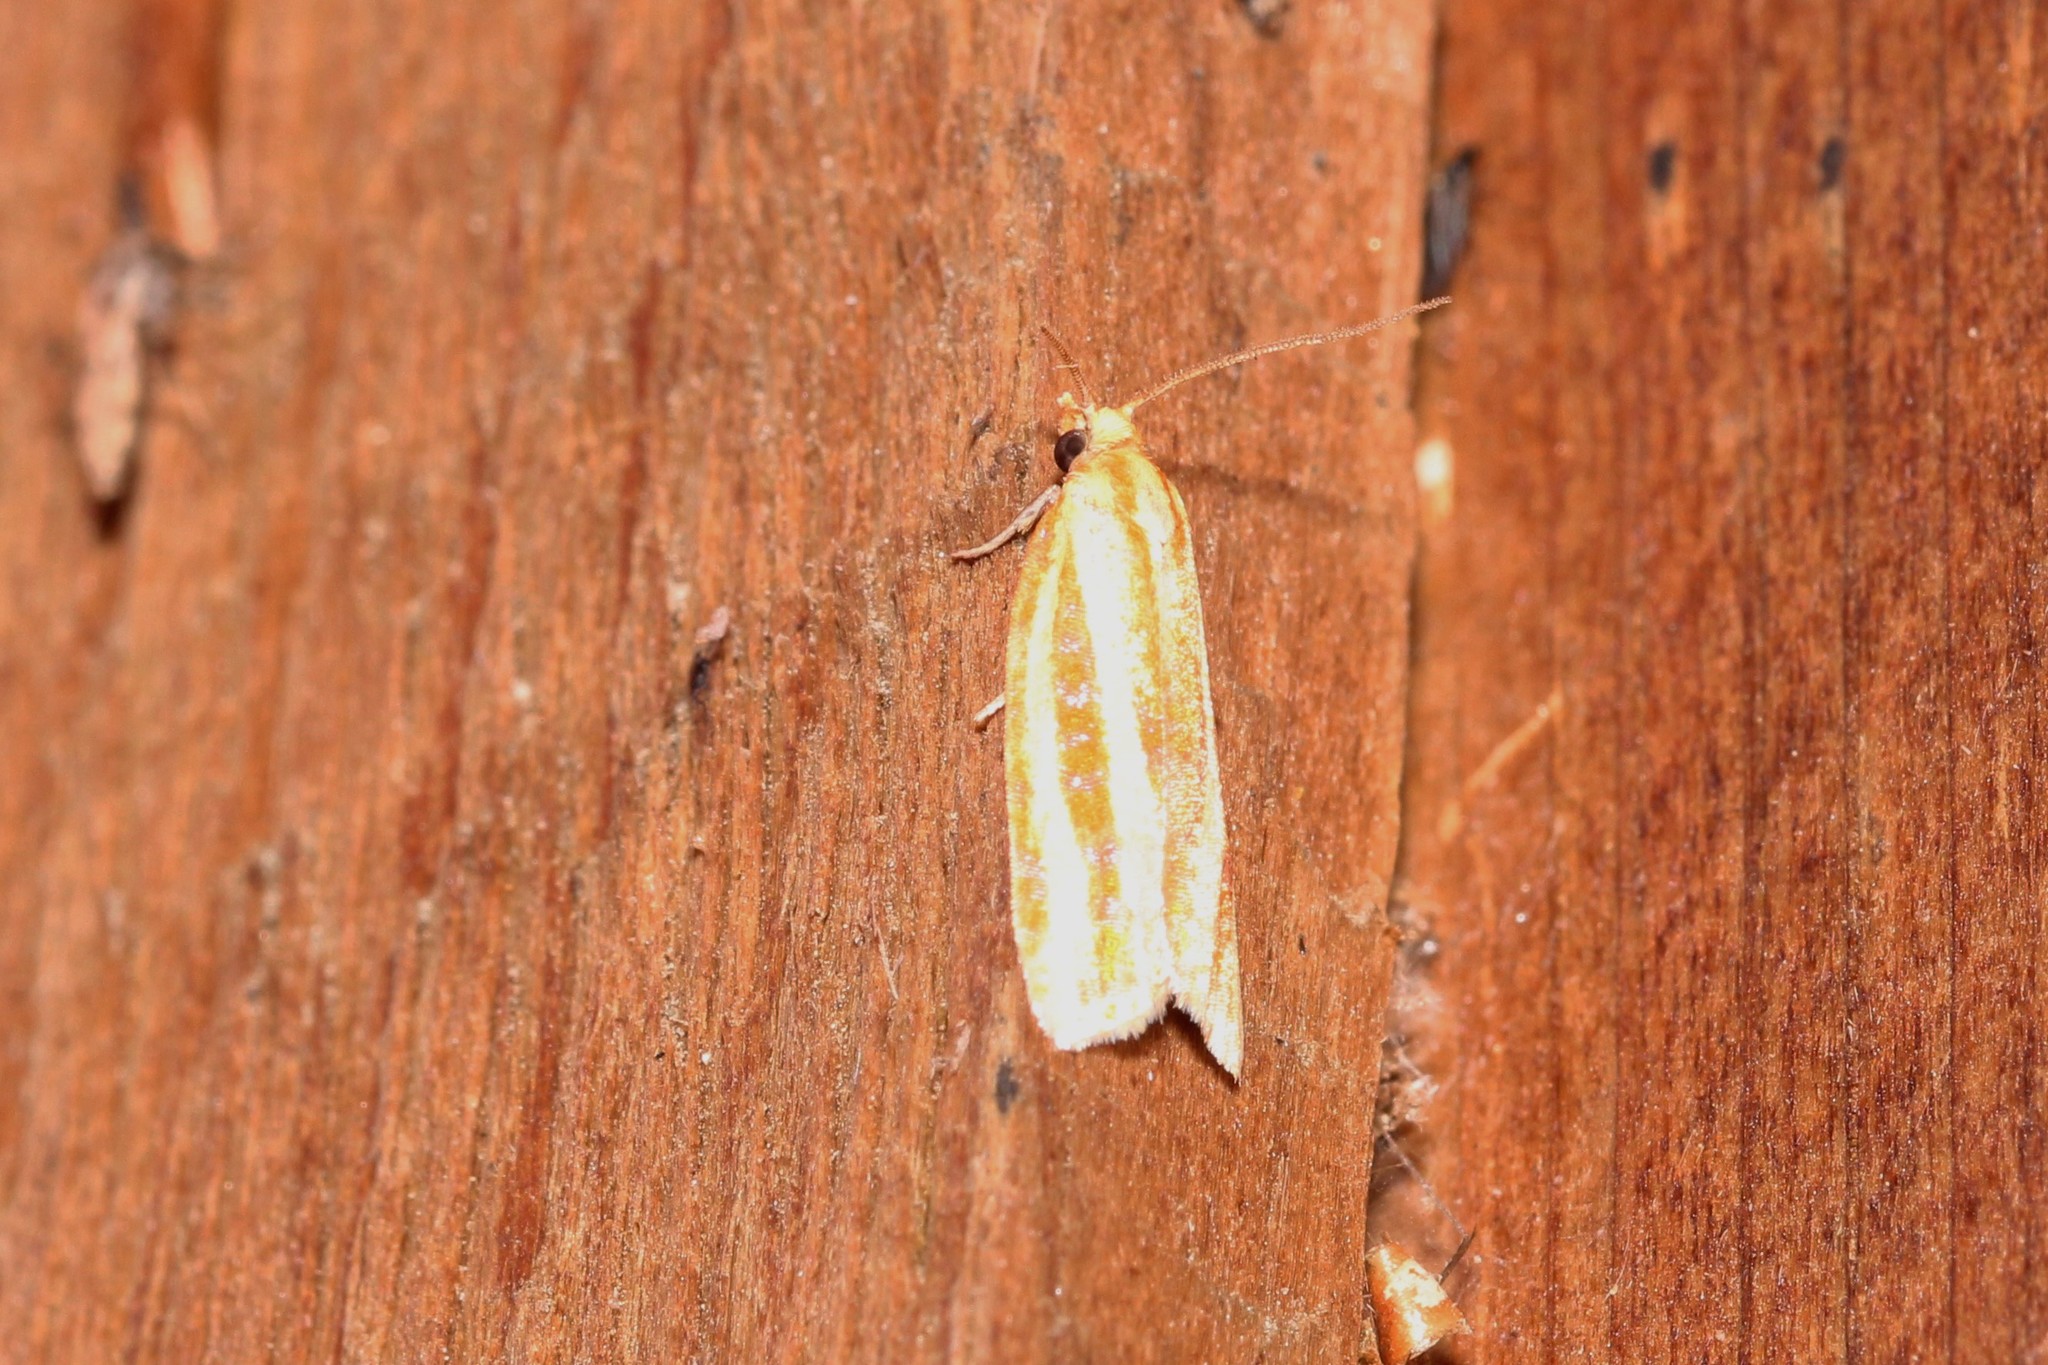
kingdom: Animalia
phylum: Arthropoda
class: Insecta
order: Lepidoptera
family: Tortricidae
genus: Sparganothis
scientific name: Sparganothis tristriata
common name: Three-streaked sparganothis moth
